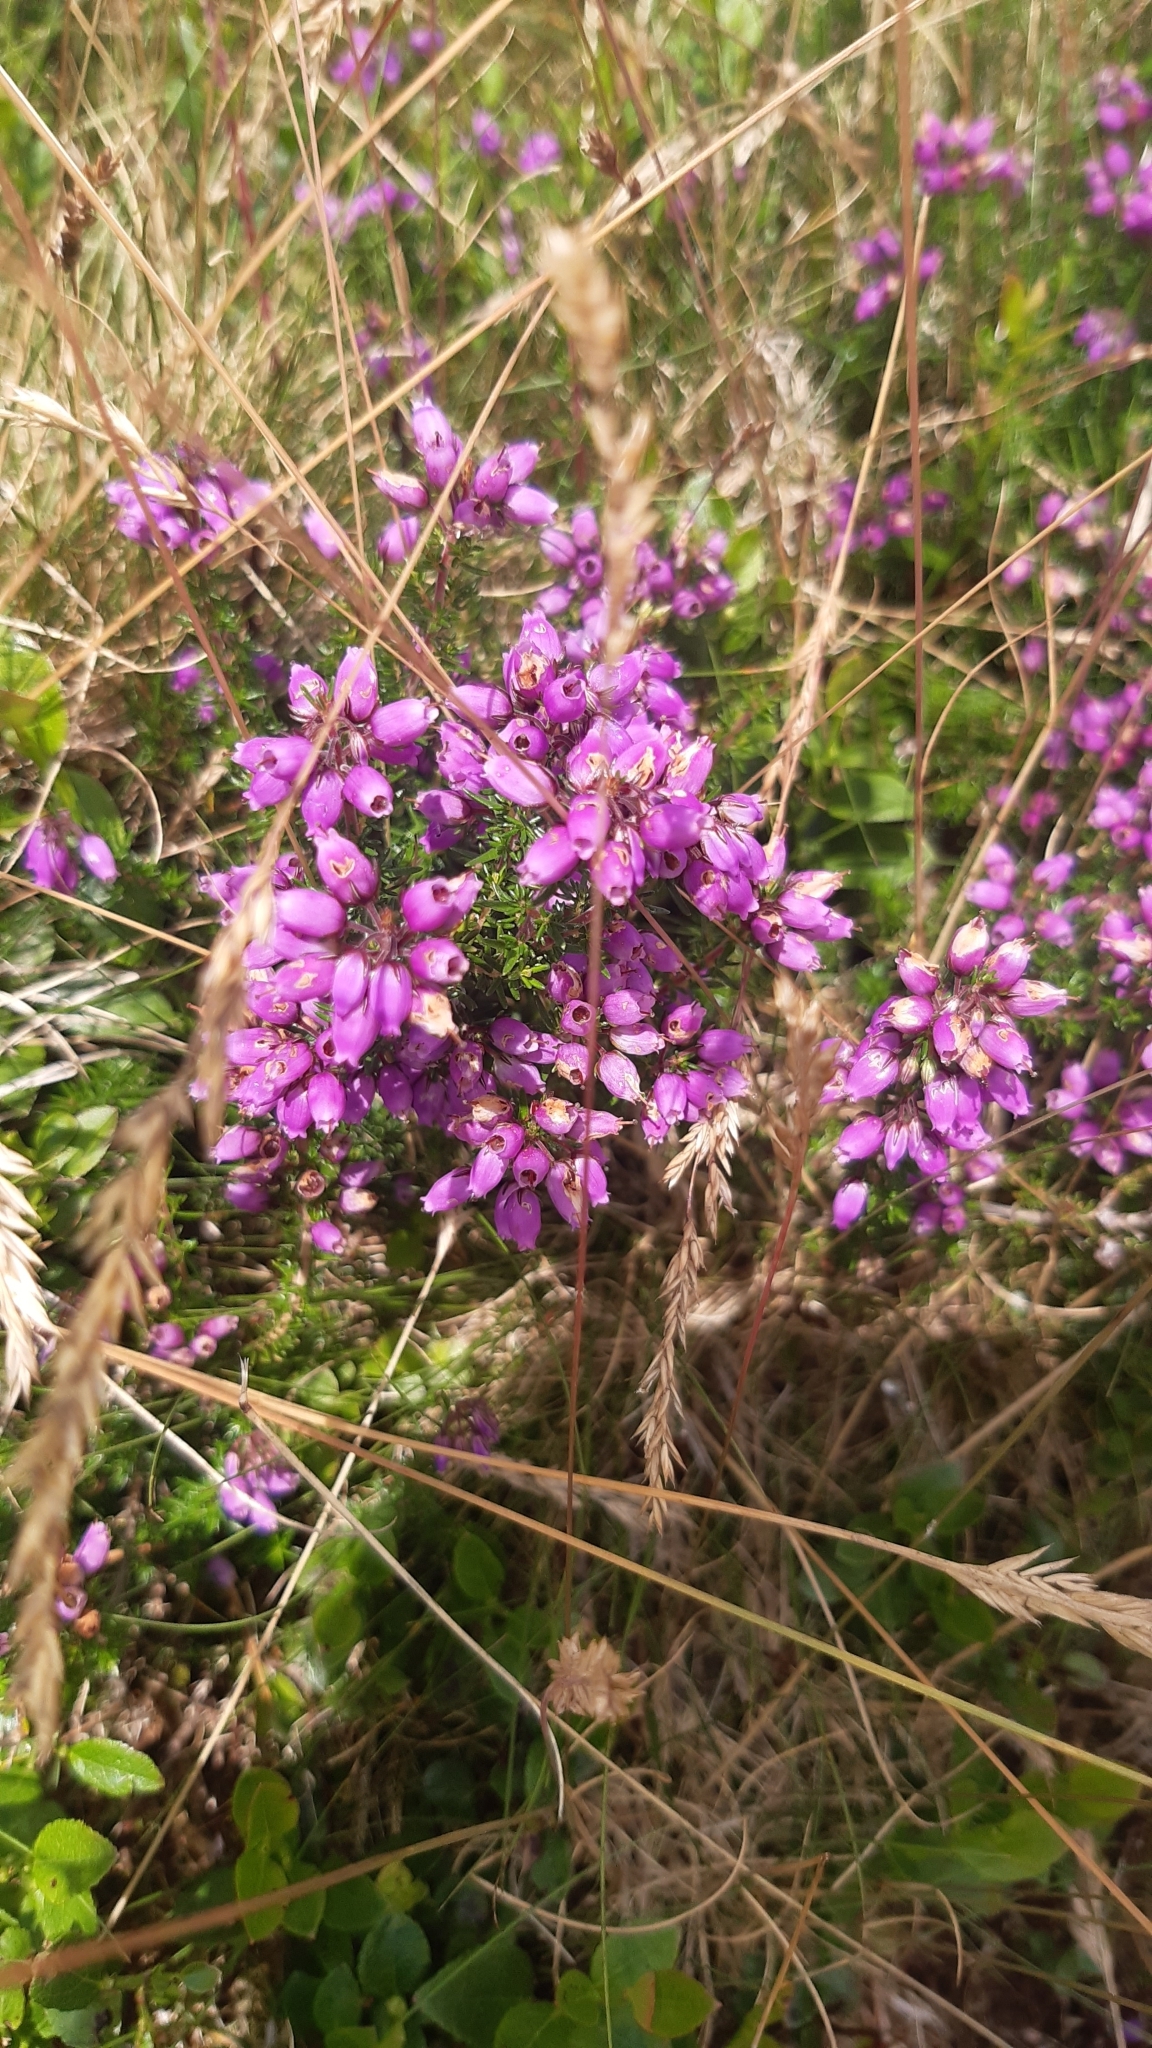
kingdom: Plantae
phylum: Tracheophyta
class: Magnoliopsida
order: Ericales
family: Ericaceae
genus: Erica
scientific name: Erica cinerea
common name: Bell heather
